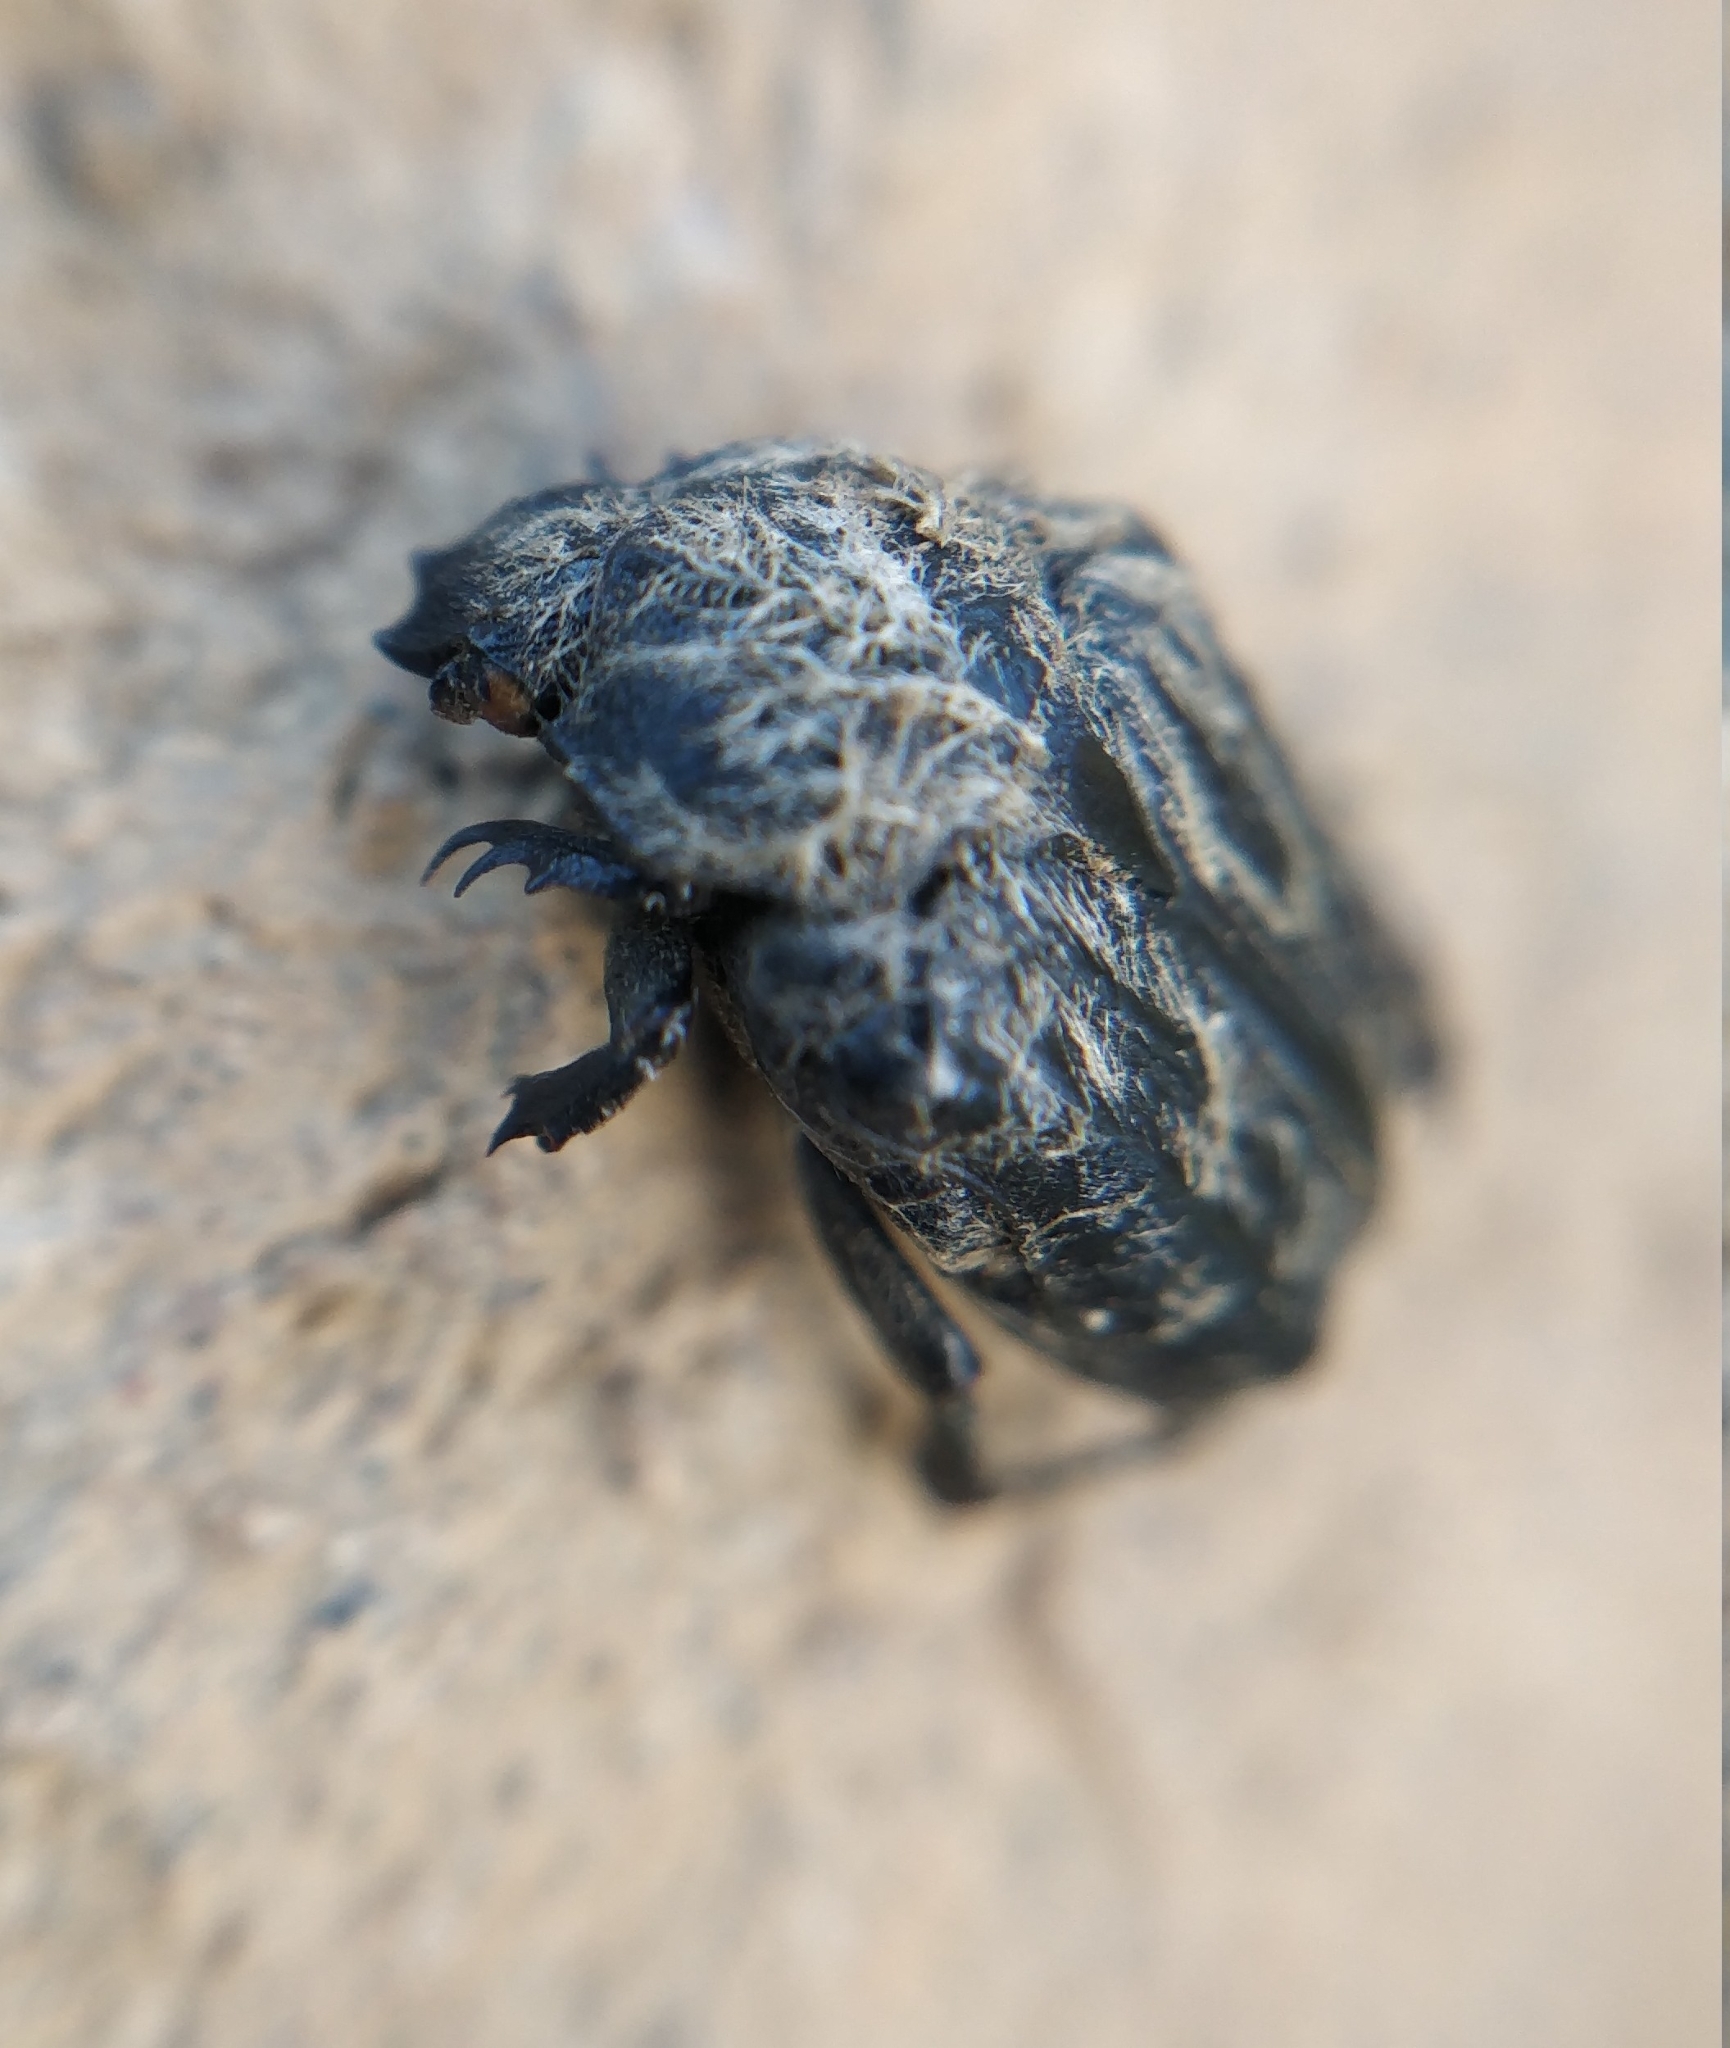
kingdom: Animalia
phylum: Arthropoda
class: Insecta
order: Coleoptera
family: Scarabaeidae
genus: Tropinota
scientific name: Tropinota squalida
